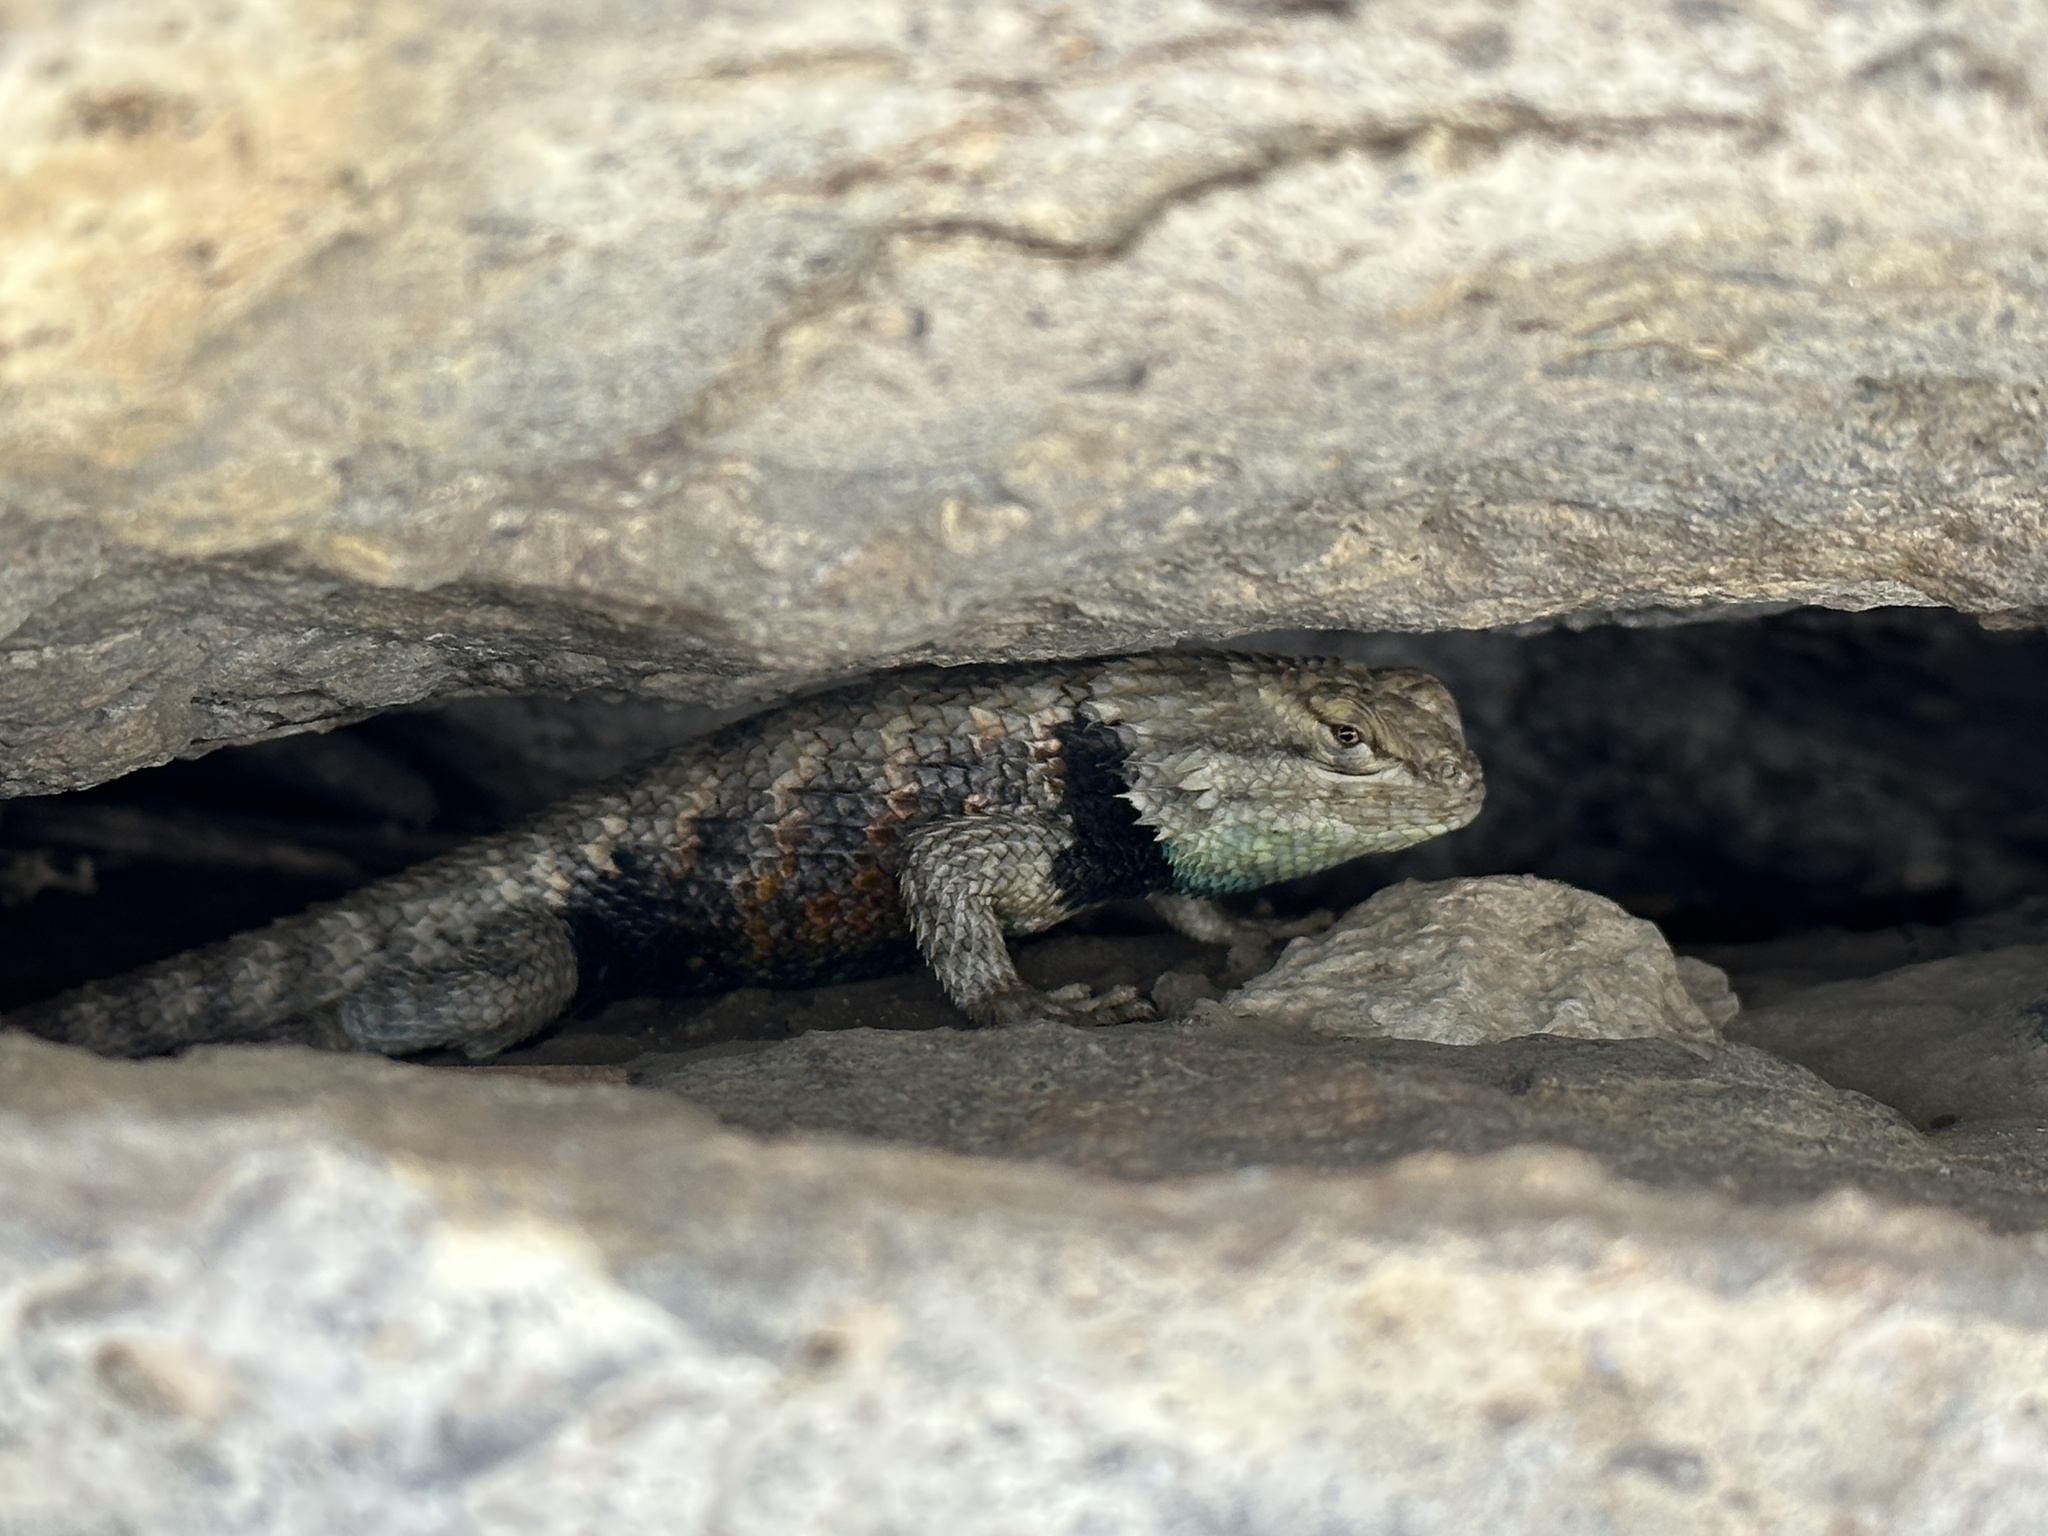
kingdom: Animalia
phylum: Chordata
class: Squamata
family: Phrynosomatidae
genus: Sceloporus
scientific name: Sceloporus uniformis
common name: Yellow-backed spiny lizard
